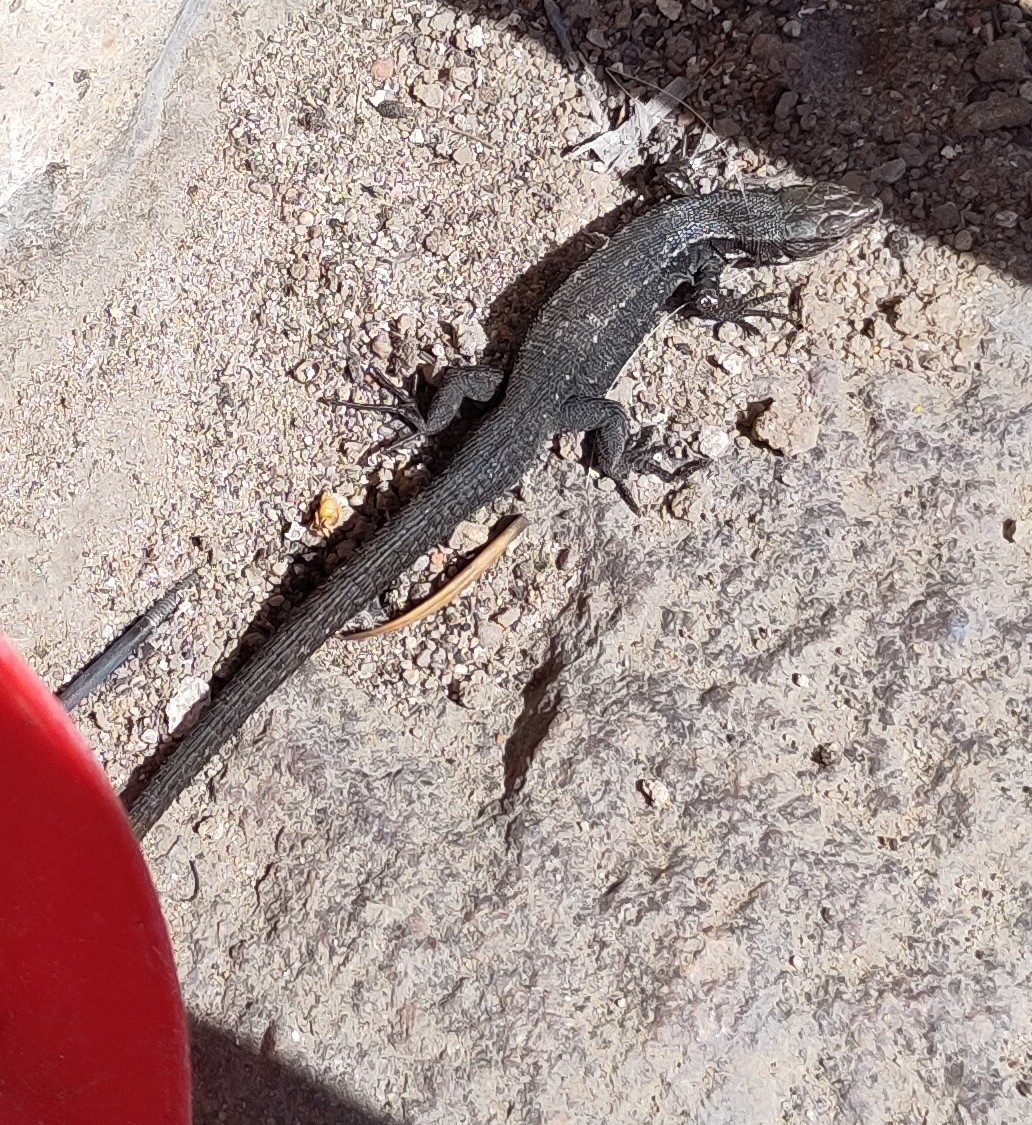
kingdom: Animalia
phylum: Chordata
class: Squamata
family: Lacertidae
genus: Zootoca
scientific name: Zootoca vivipara
